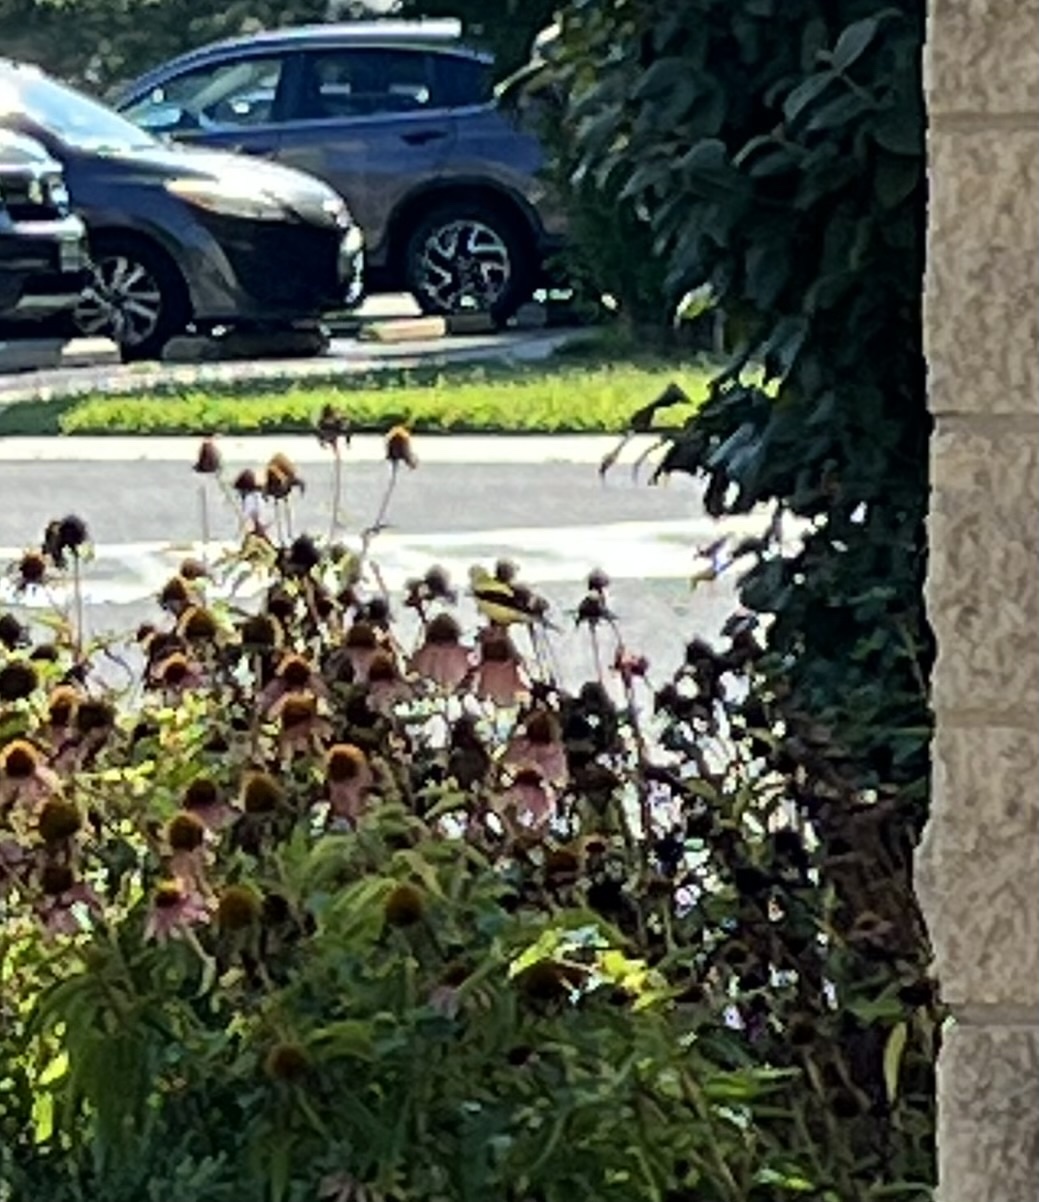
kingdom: Animalia
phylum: Chordata
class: Aves
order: Passeriformes
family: Fringillidae
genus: Spinus
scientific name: Spinus tristis
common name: American goldfinch
